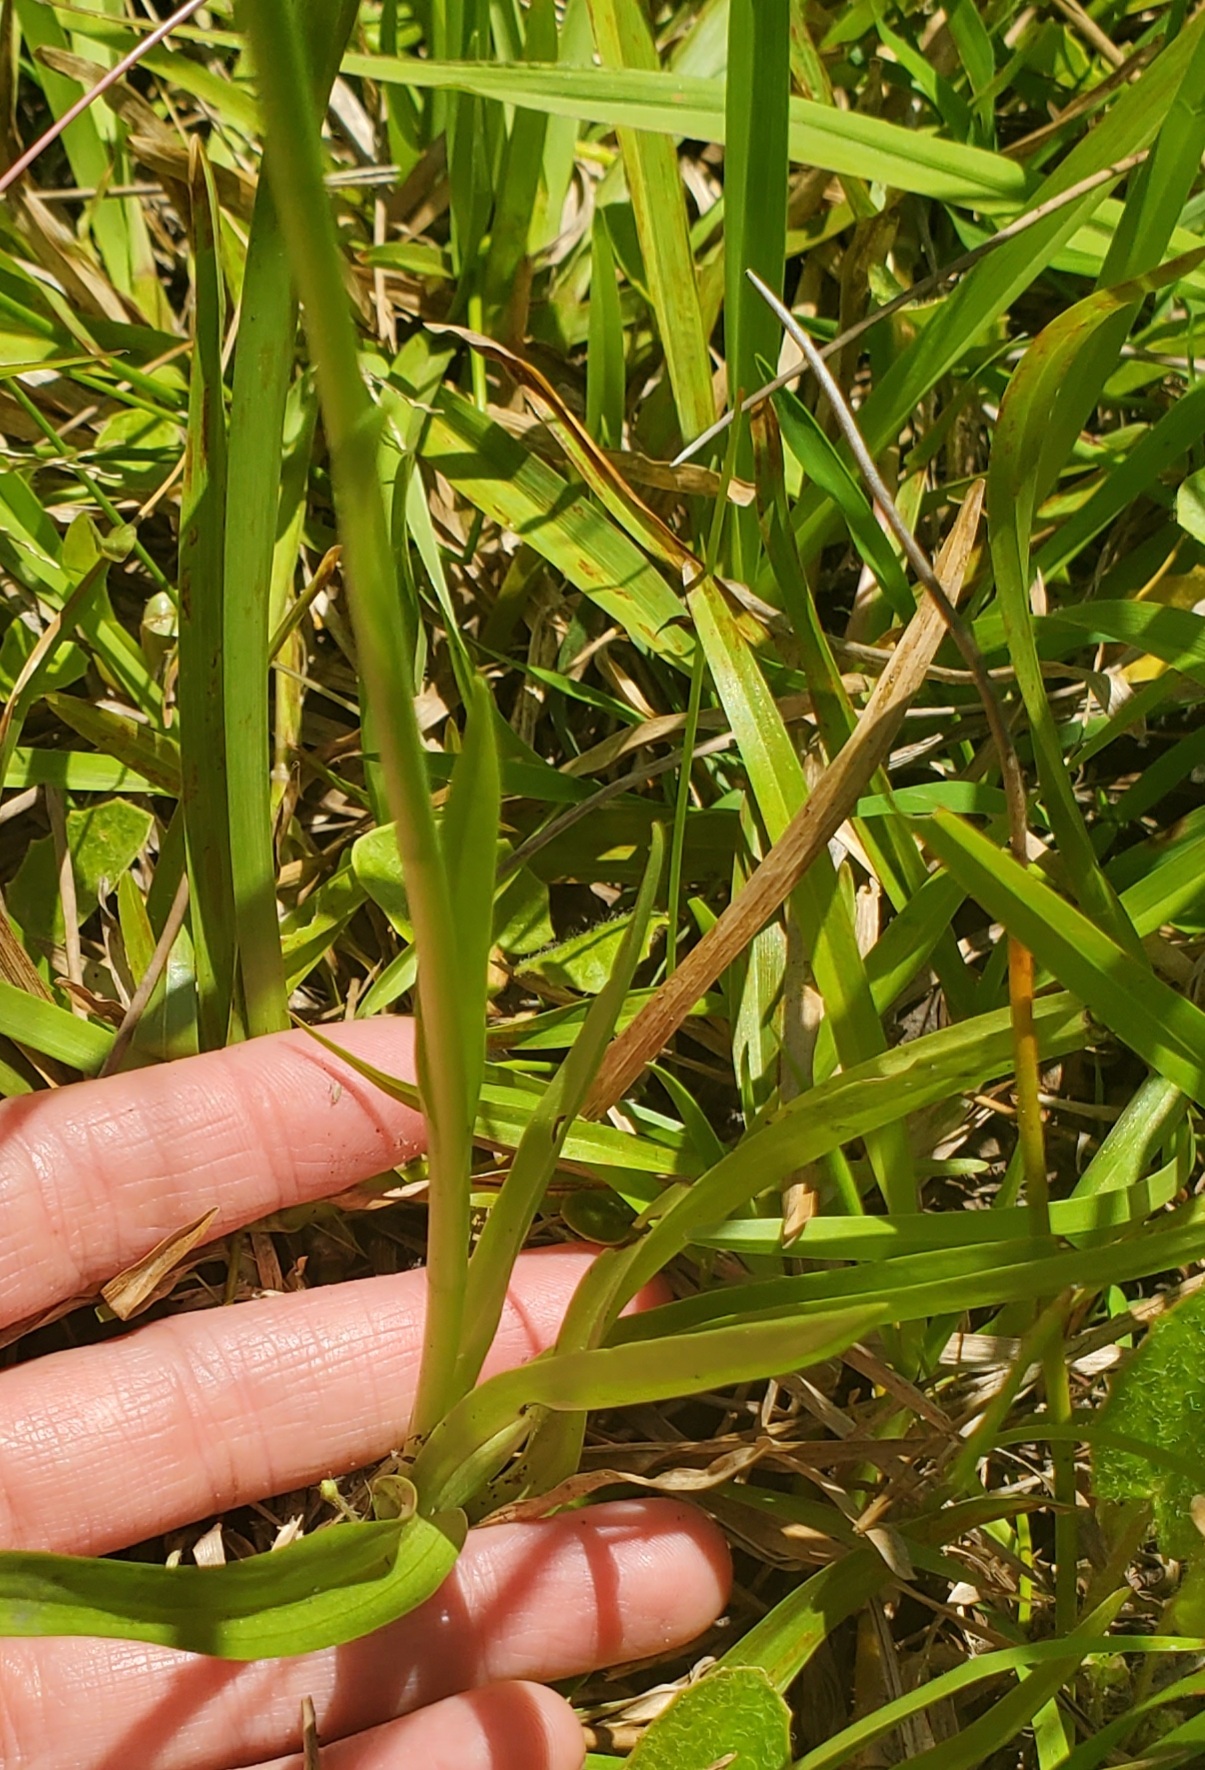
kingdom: Plantae
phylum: Tracheophyta
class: Liliopsida
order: Asparagales
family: Orchidaceae
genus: Spiranthes
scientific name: Spiranthes vernalis
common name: Spring ladies'-tresses
